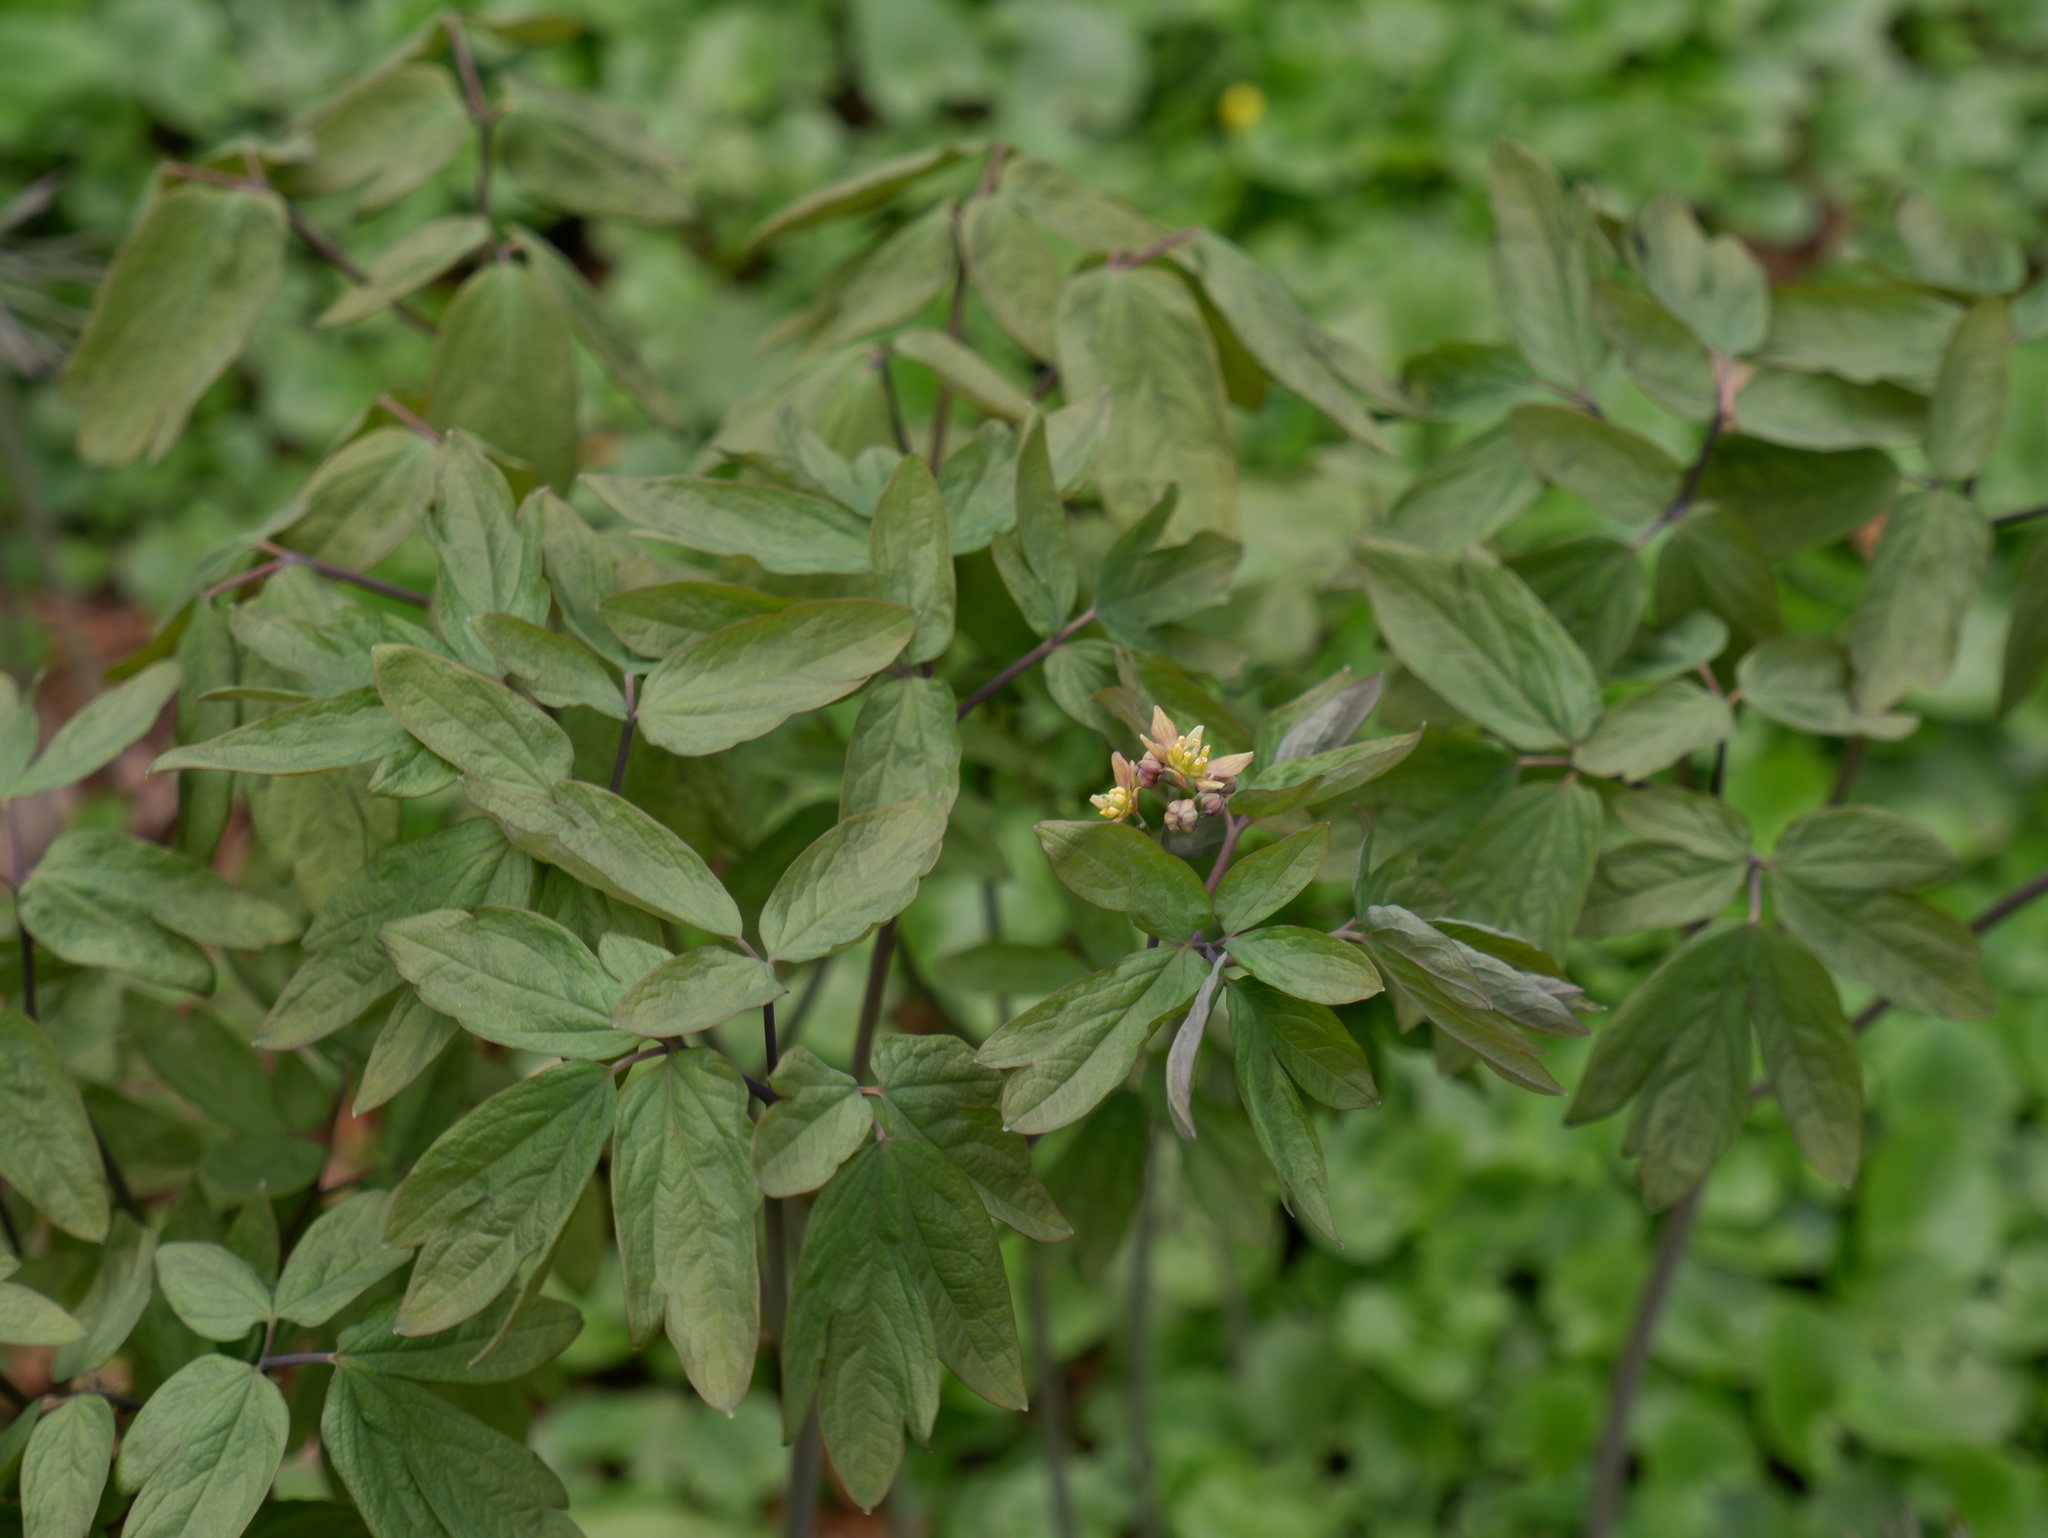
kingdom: Plantae
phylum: Tracheophyta
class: Magnoliopsida
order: Ranunculales
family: Berberidaceae
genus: Caulophyllum
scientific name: Caulophyllum thalictroides
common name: Blue cohosh
